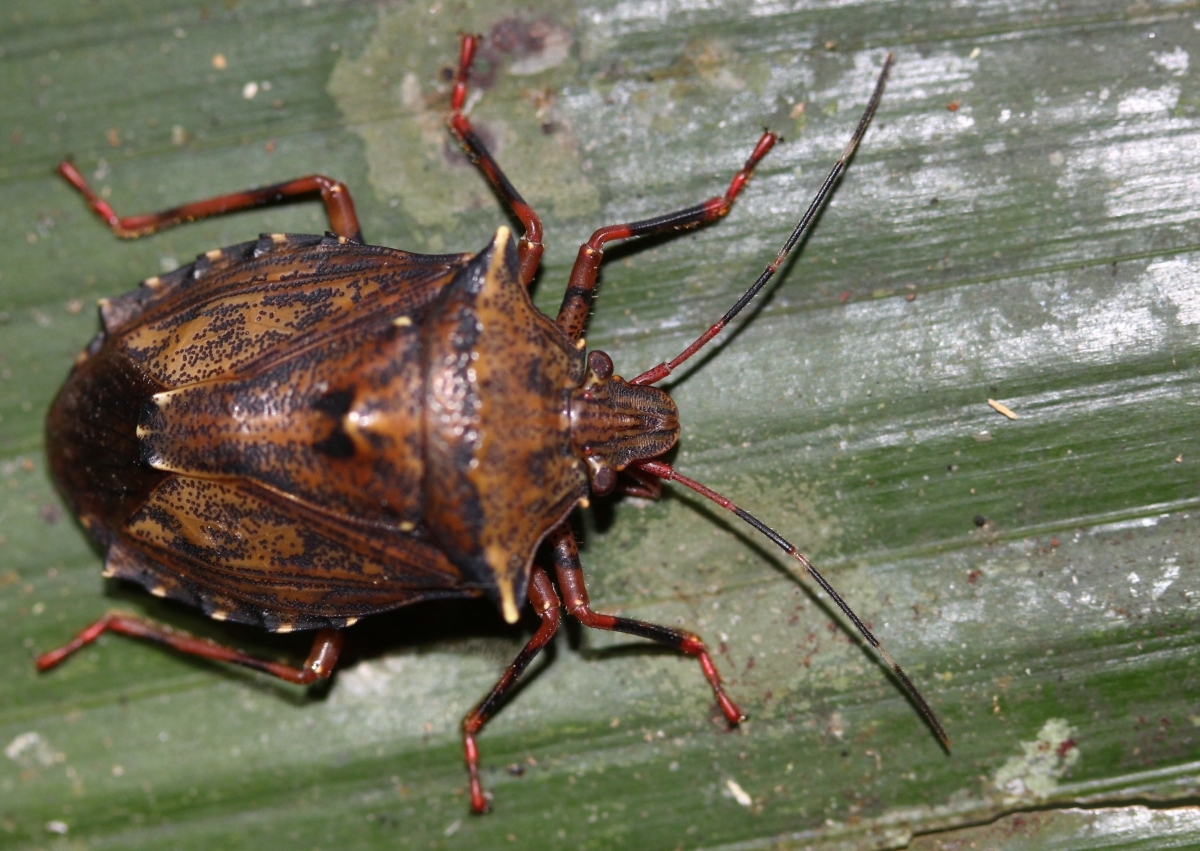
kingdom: Animalia
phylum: Arthropoda
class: Insecta
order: Hemiptera
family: Pentatomidae
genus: Ablaptus
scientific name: Ablaptus
